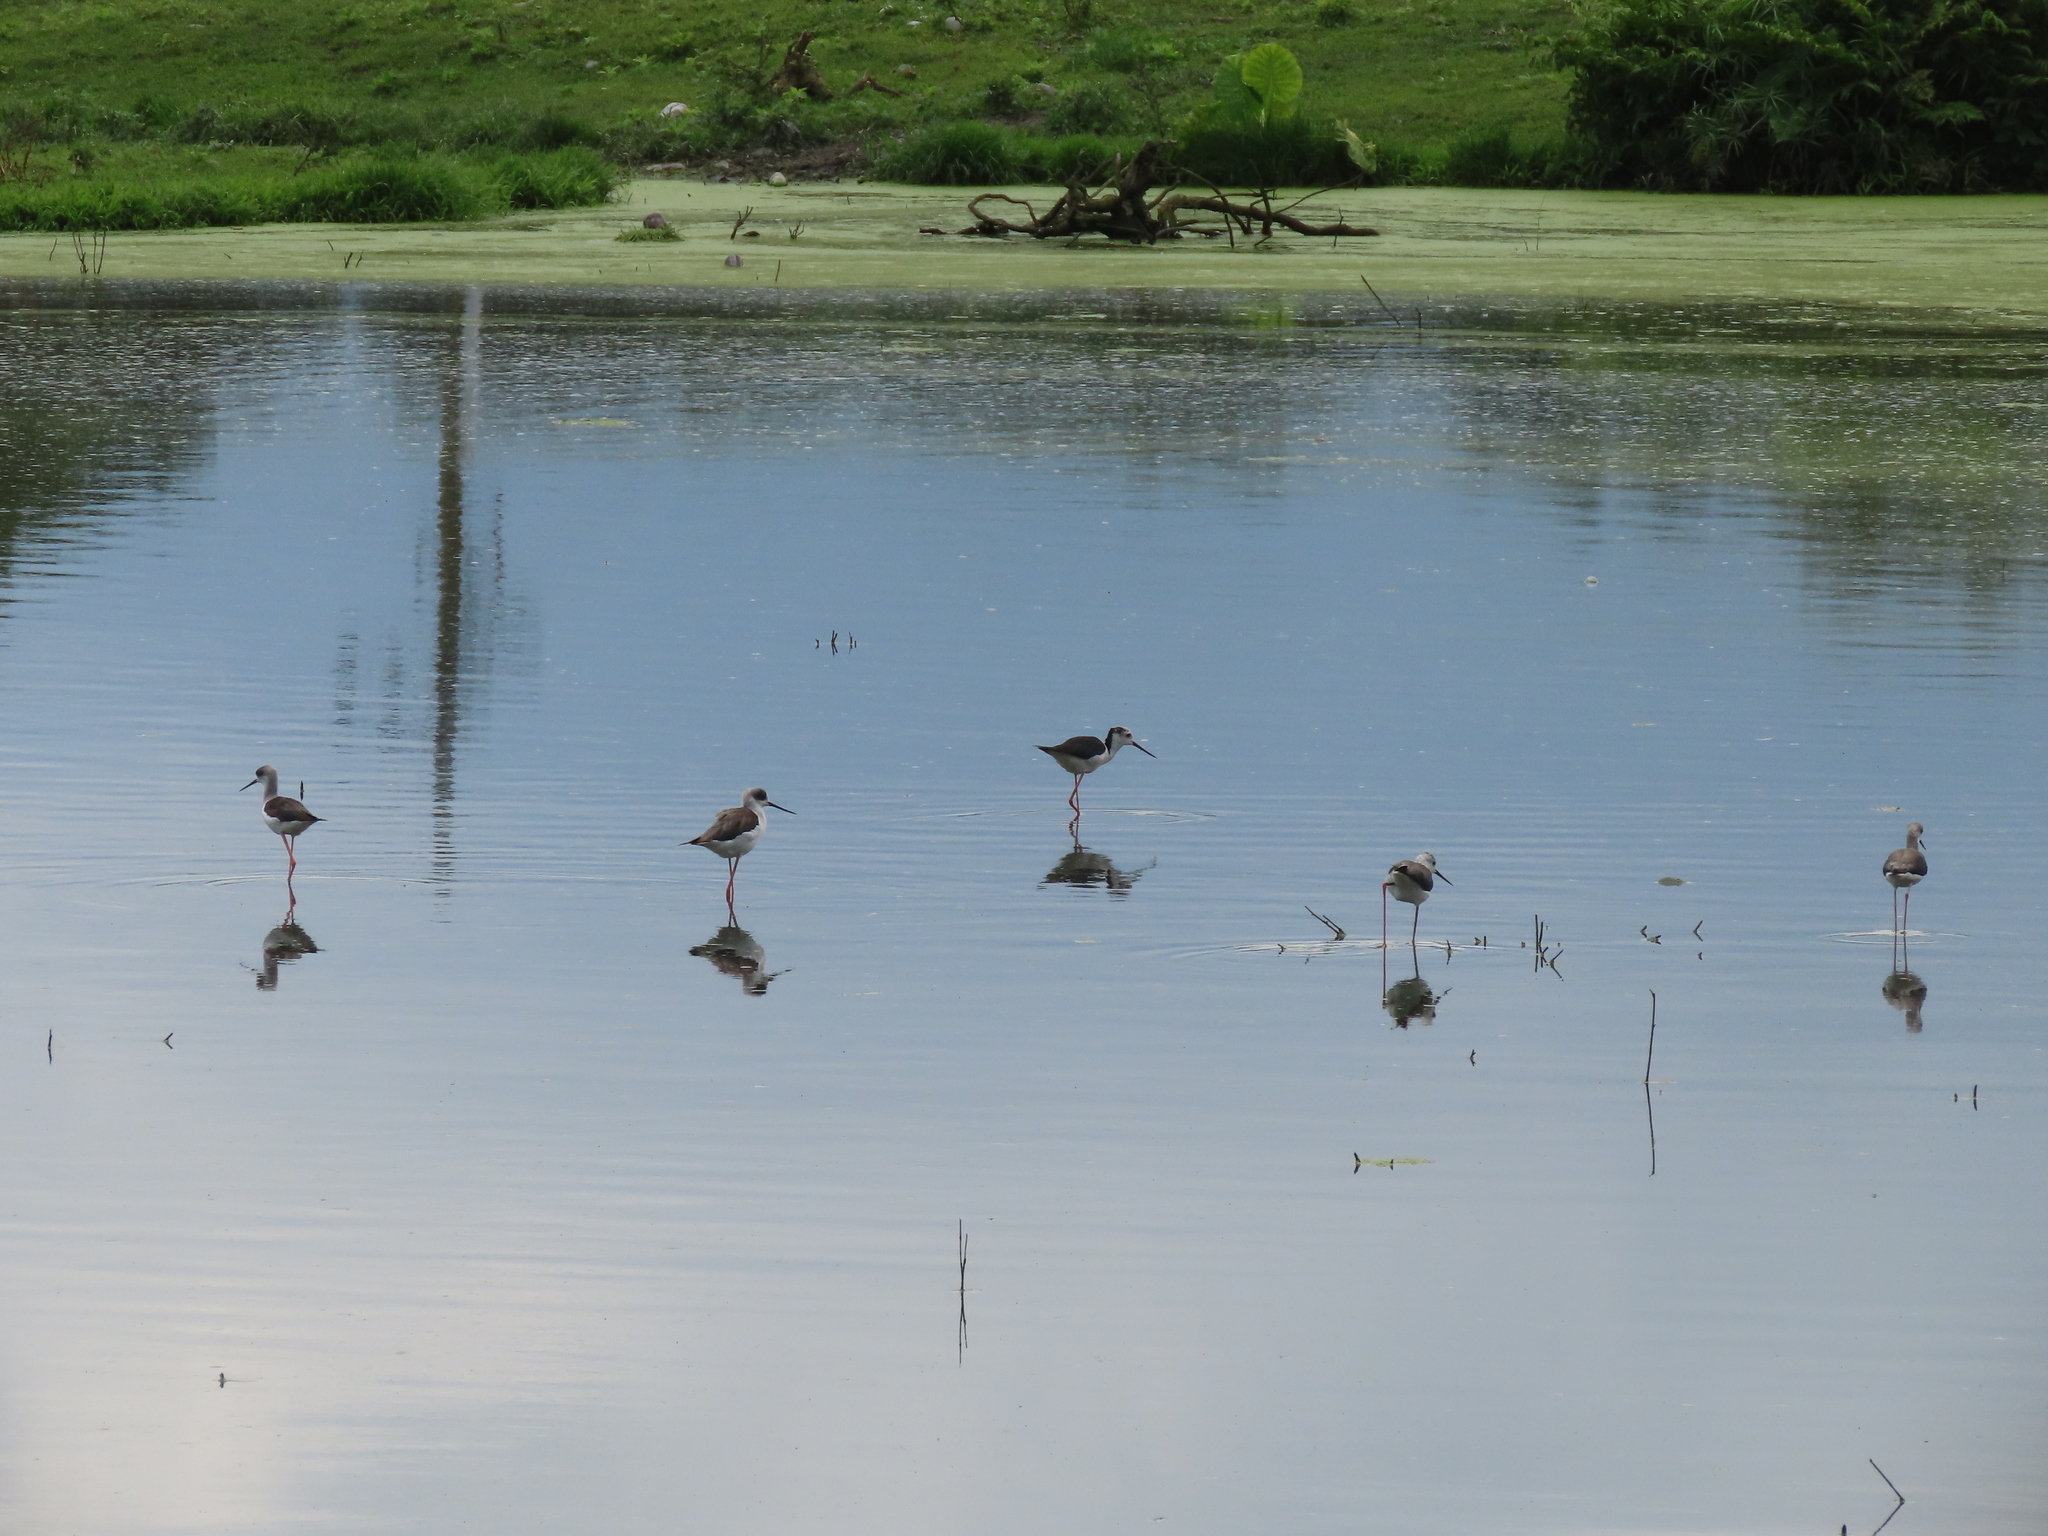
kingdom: Animalia
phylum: Chordata
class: Aves
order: Charadriiformes
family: Recurvirostridae
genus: Himantopus
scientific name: Himantopus himantopus
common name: Black-winged stilt
